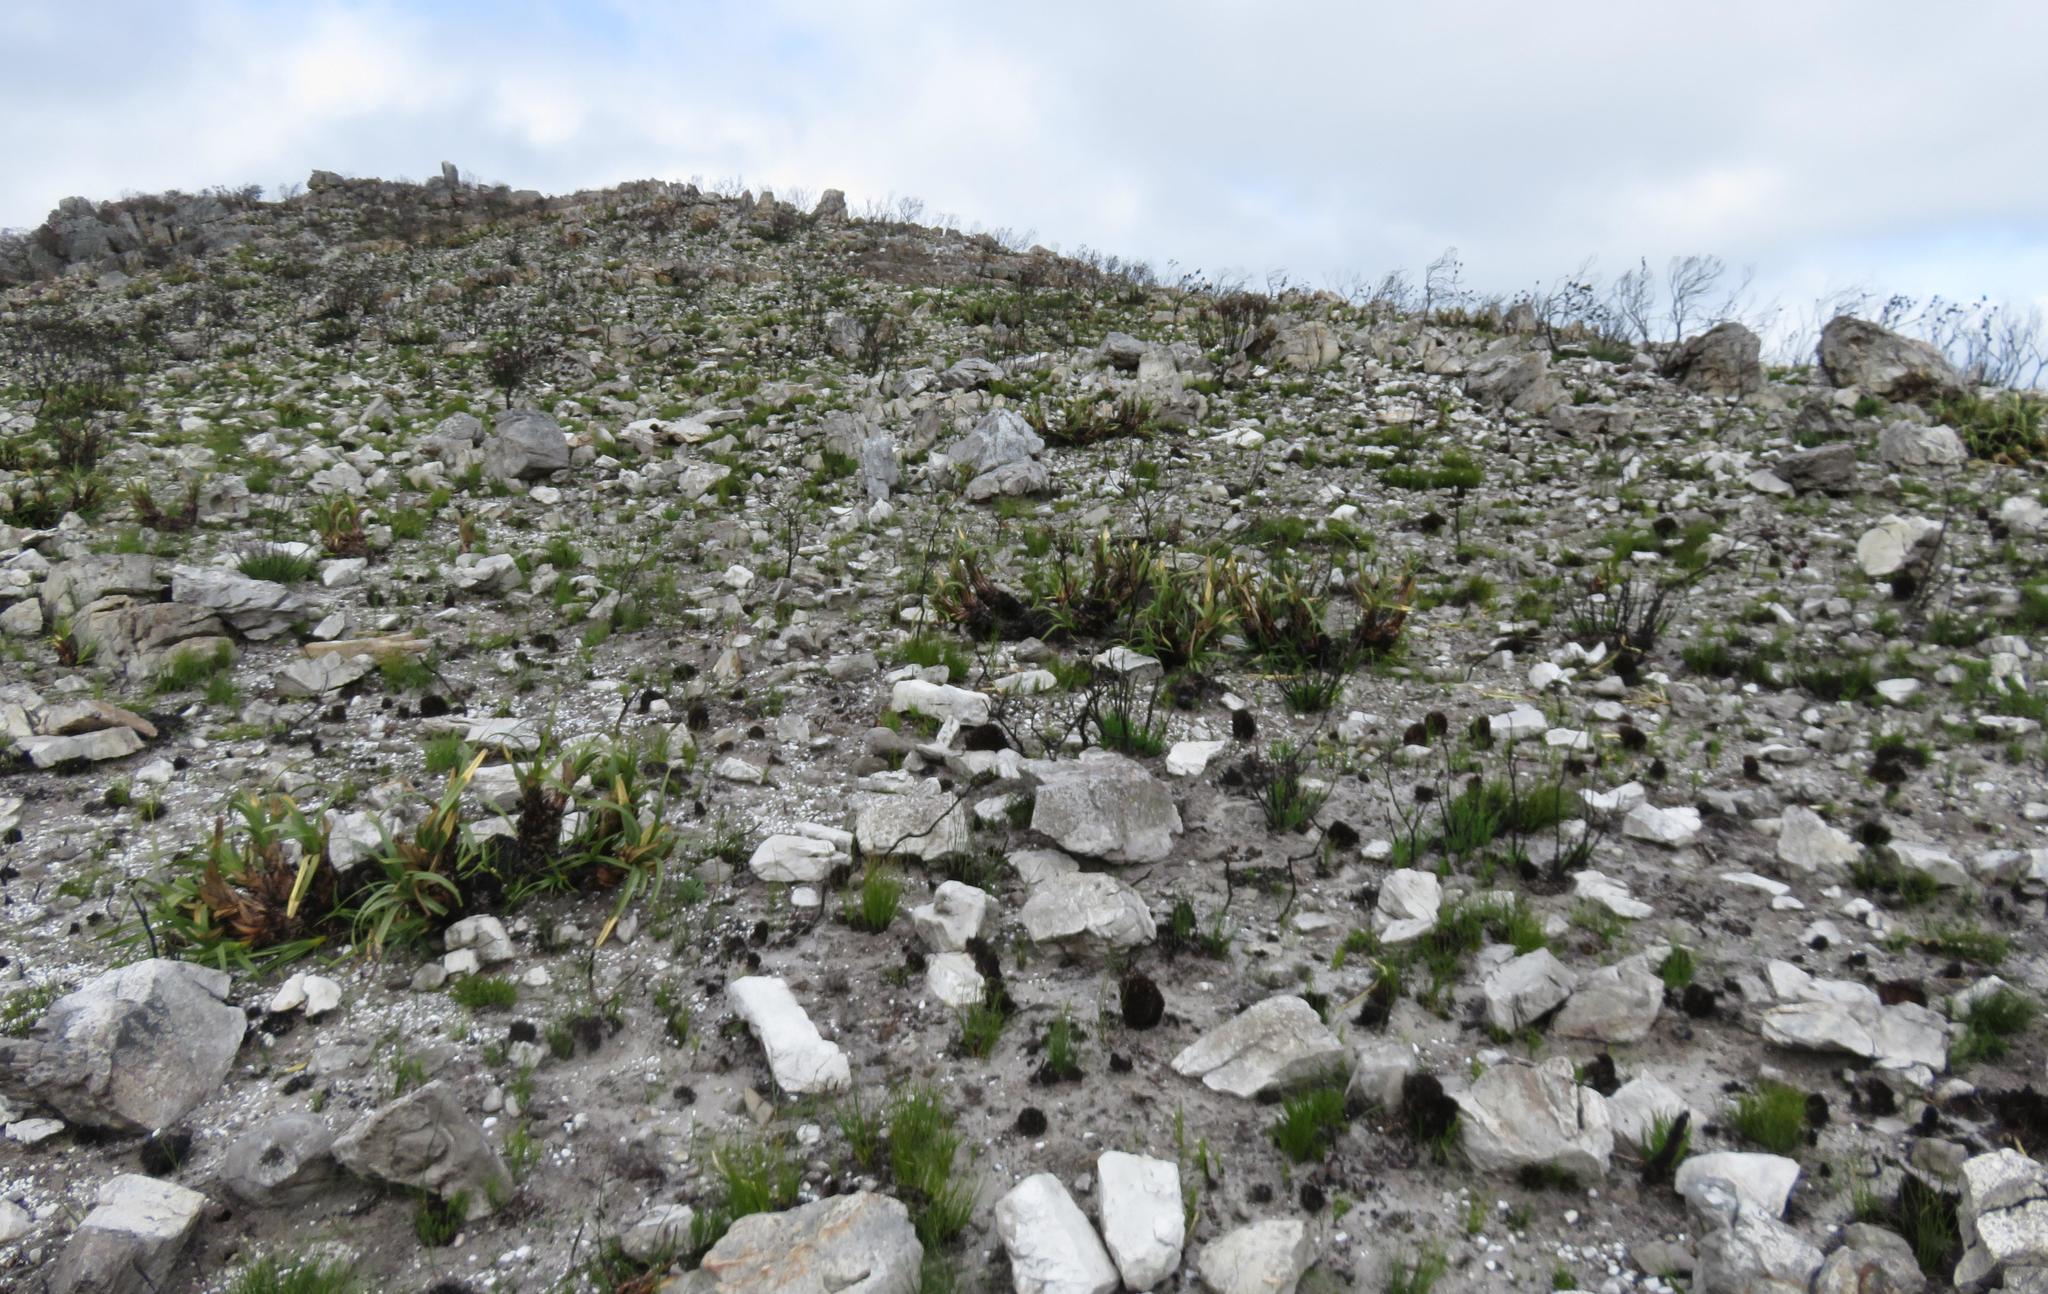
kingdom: Plantae
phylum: Tracheophyta
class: Liliopsida
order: Poales
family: Cyperaceae
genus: Tetraria
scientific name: Tetraria thermalis
